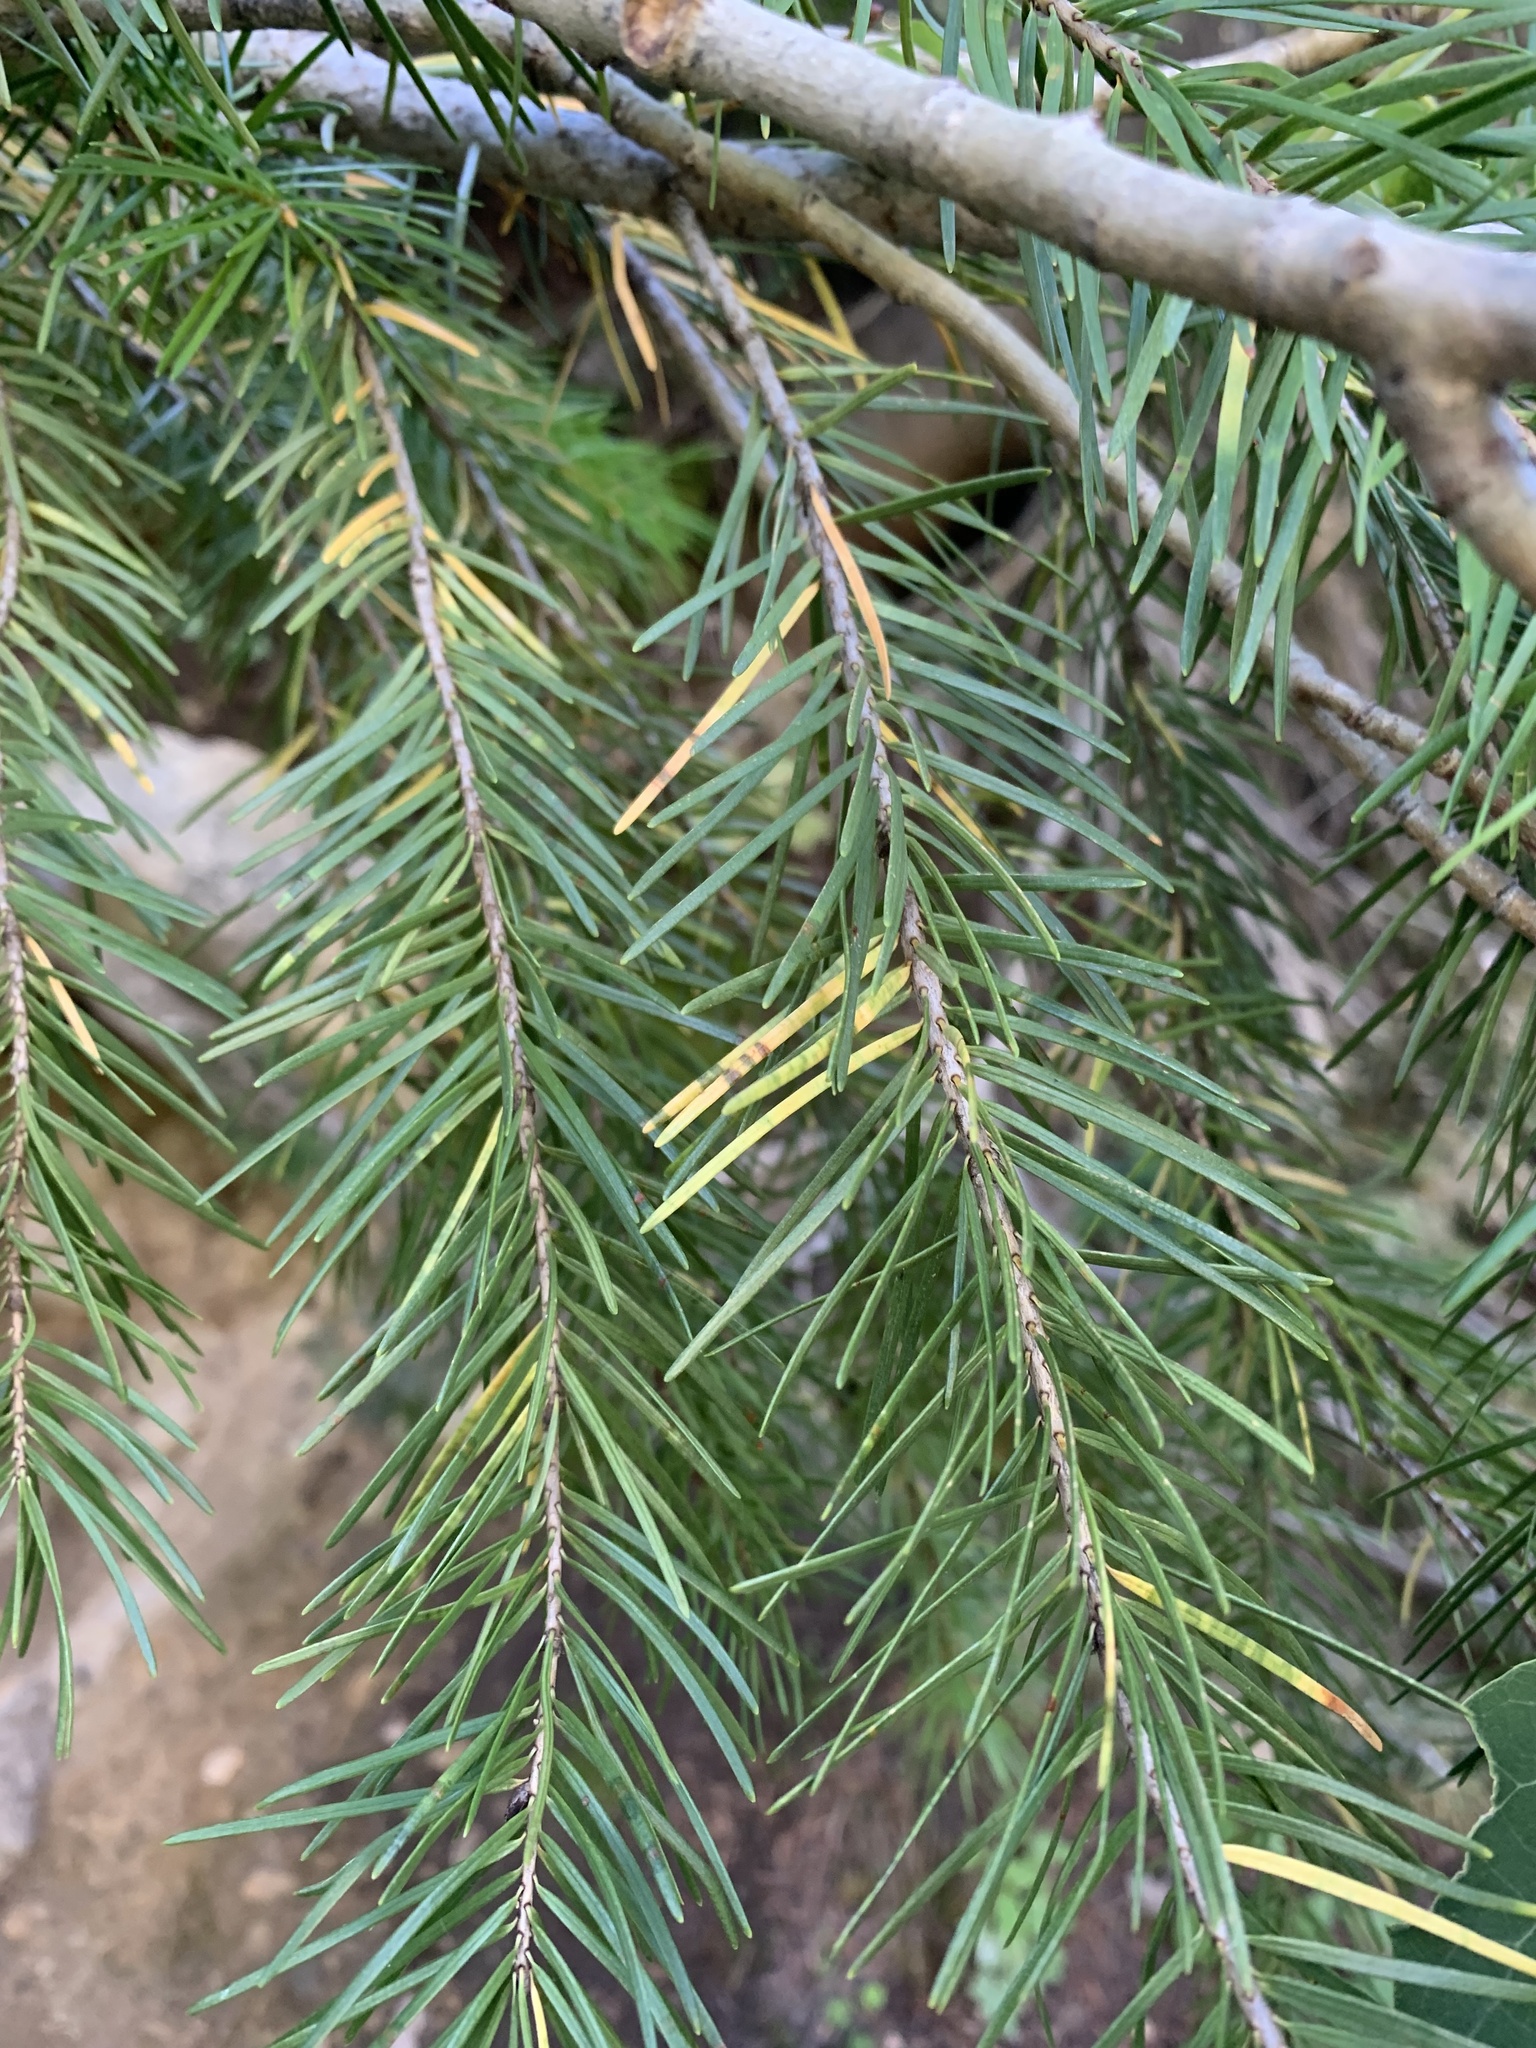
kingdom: Plantae
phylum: Tracheophyta
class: Pinopsida
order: Pinales
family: Pinaceae
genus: Pseudotsuga
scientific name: Pseudotsuga menziesii
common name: Douglas fir
